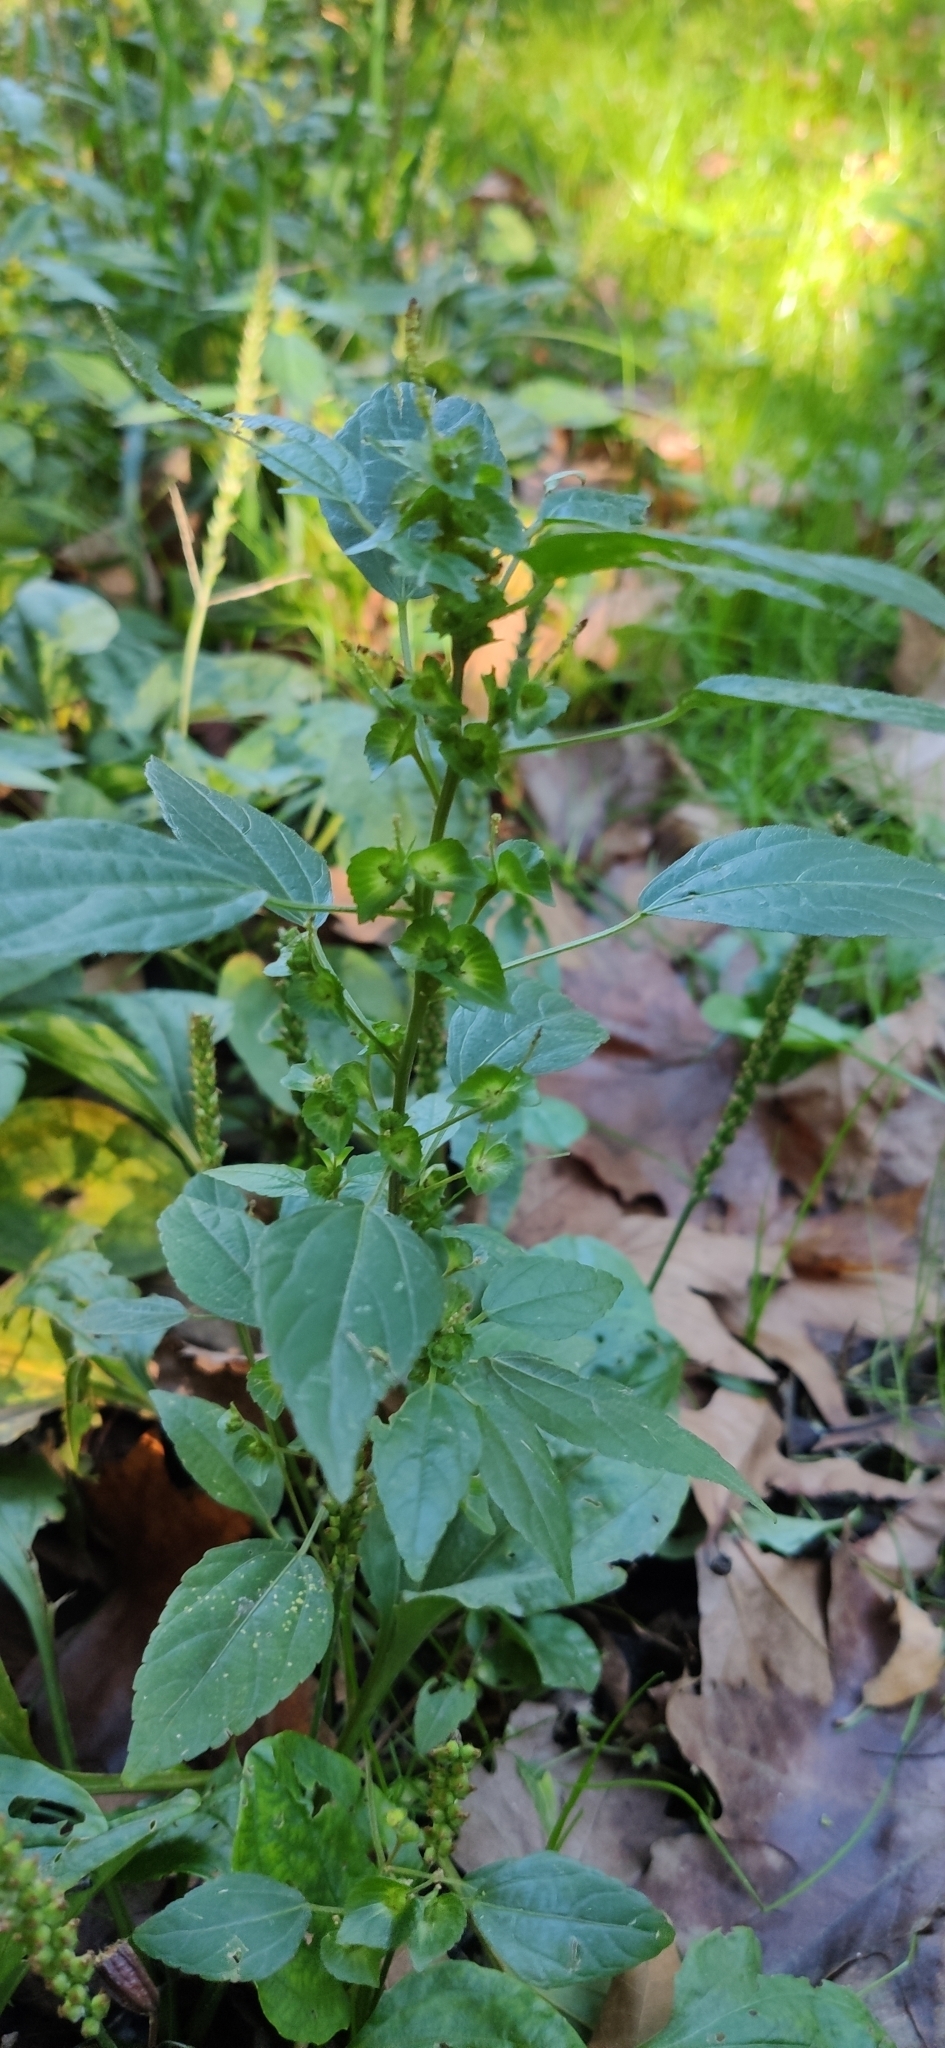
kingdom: Plantae
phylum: Tracheophyta
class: Magnoliopsida
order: Malpighiales
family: Euphorbiaceae
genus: Acalypha
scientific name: Acalypha australis
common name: Asian copperleaf
